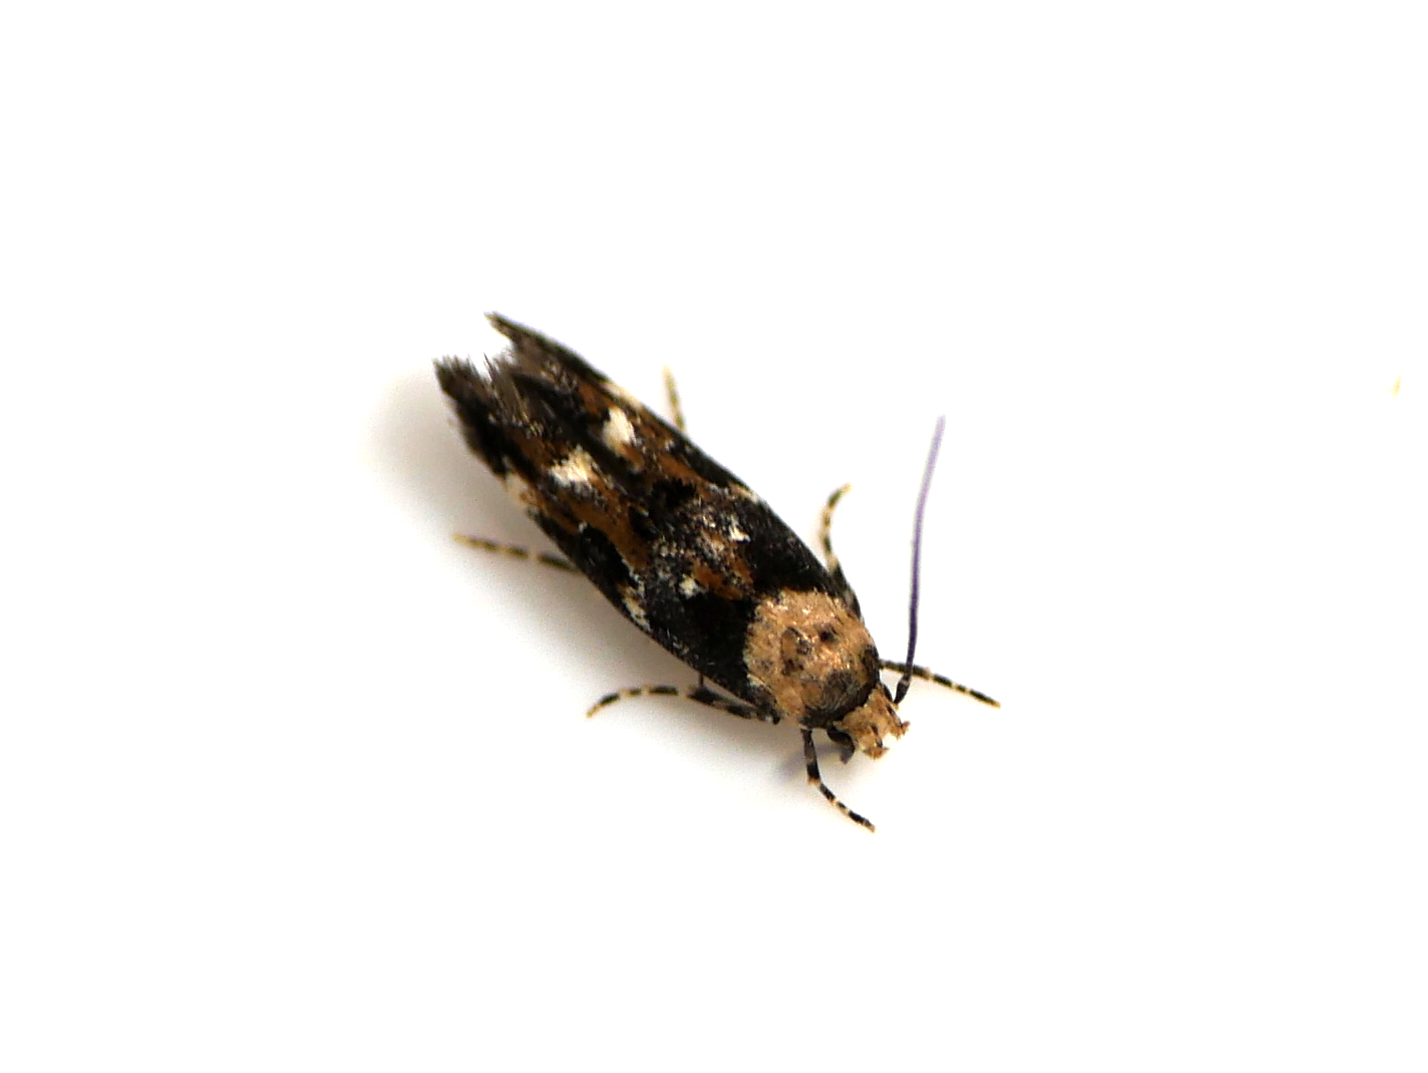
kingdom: Animalia
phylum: Arthropoda
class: Insecta
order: Lepidoptera
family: Momphidae
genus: Mompha
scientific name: Mompha lacteella
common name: Rust-blotch cosmet
